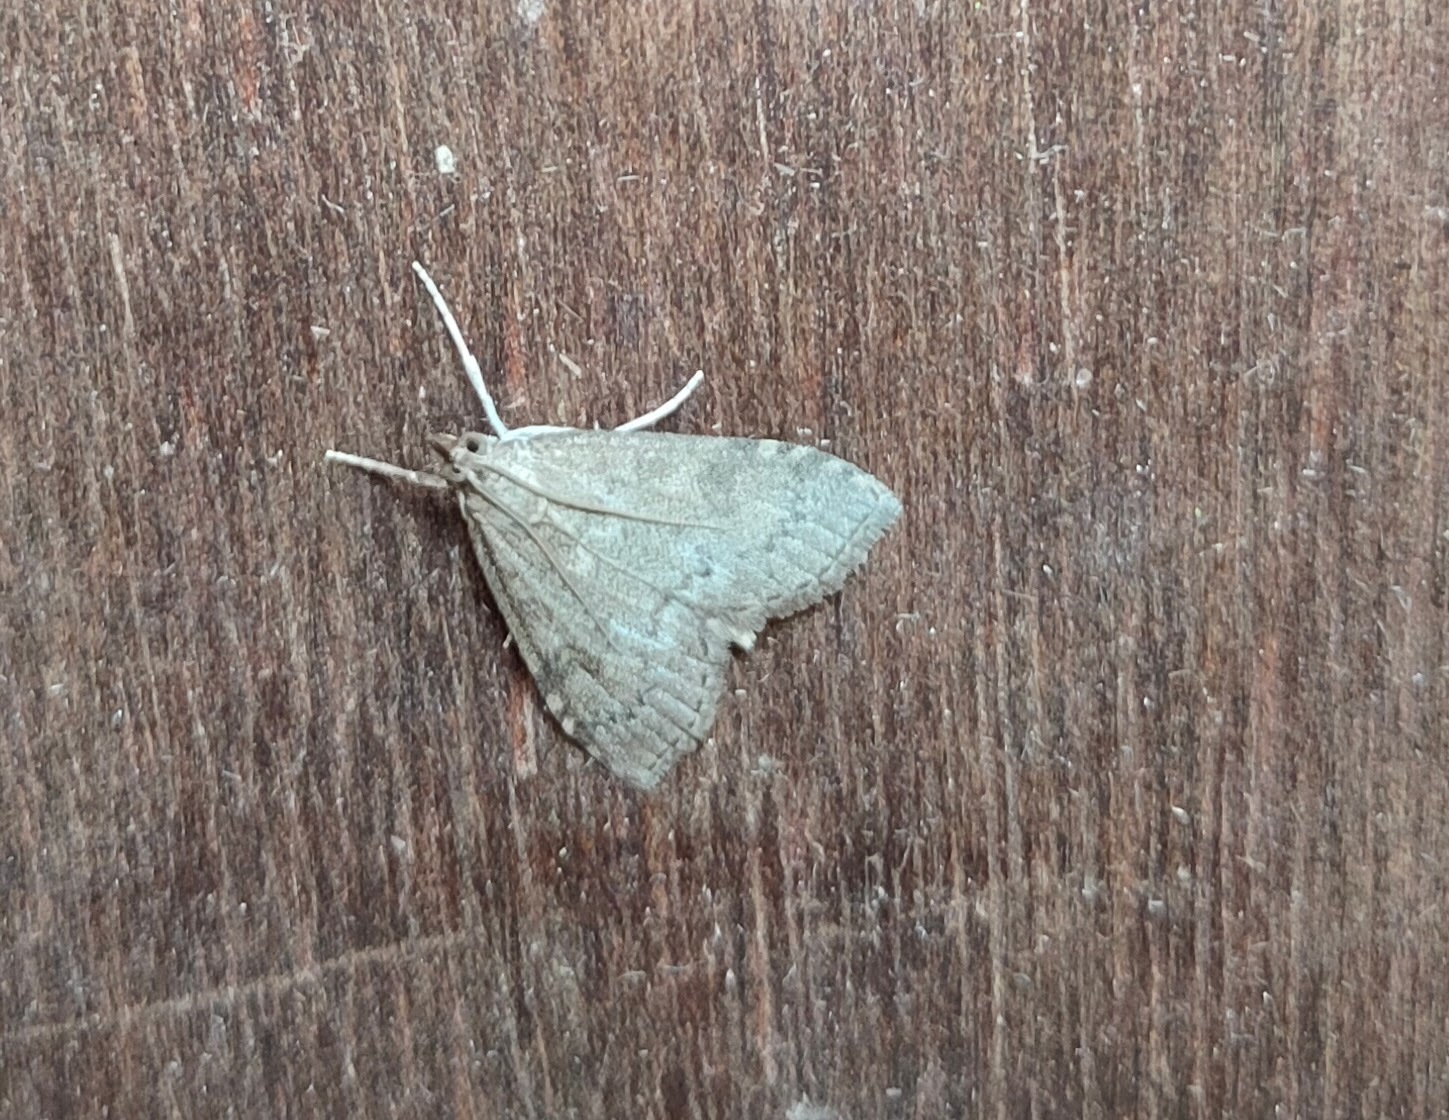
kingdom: Animalia
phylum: Arthropoda
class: Insecta
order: Lepidoptera
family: Crambidae
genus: Udea
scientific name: Udea prunalis
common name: Dusky pearl
